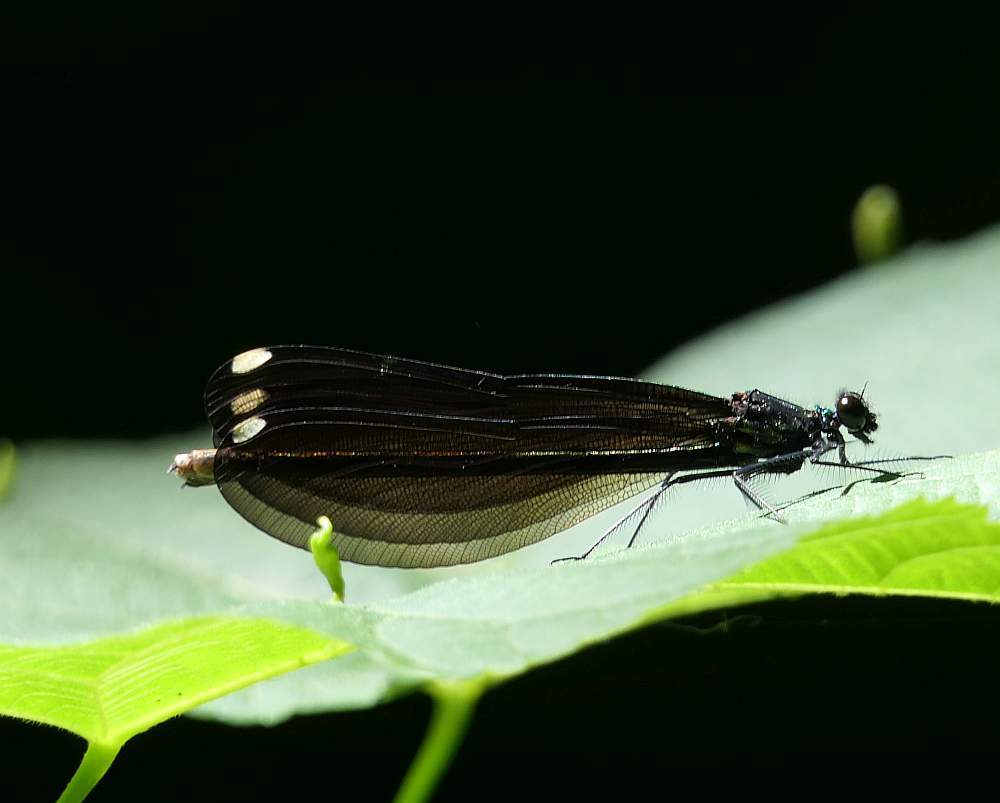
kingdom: Animalia
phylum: Arthropoda
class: Insecta
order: Odonata
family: Calopterygidae
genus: Calopteryx
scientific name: Calopteryx maculata
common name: Ebony jewelwing
